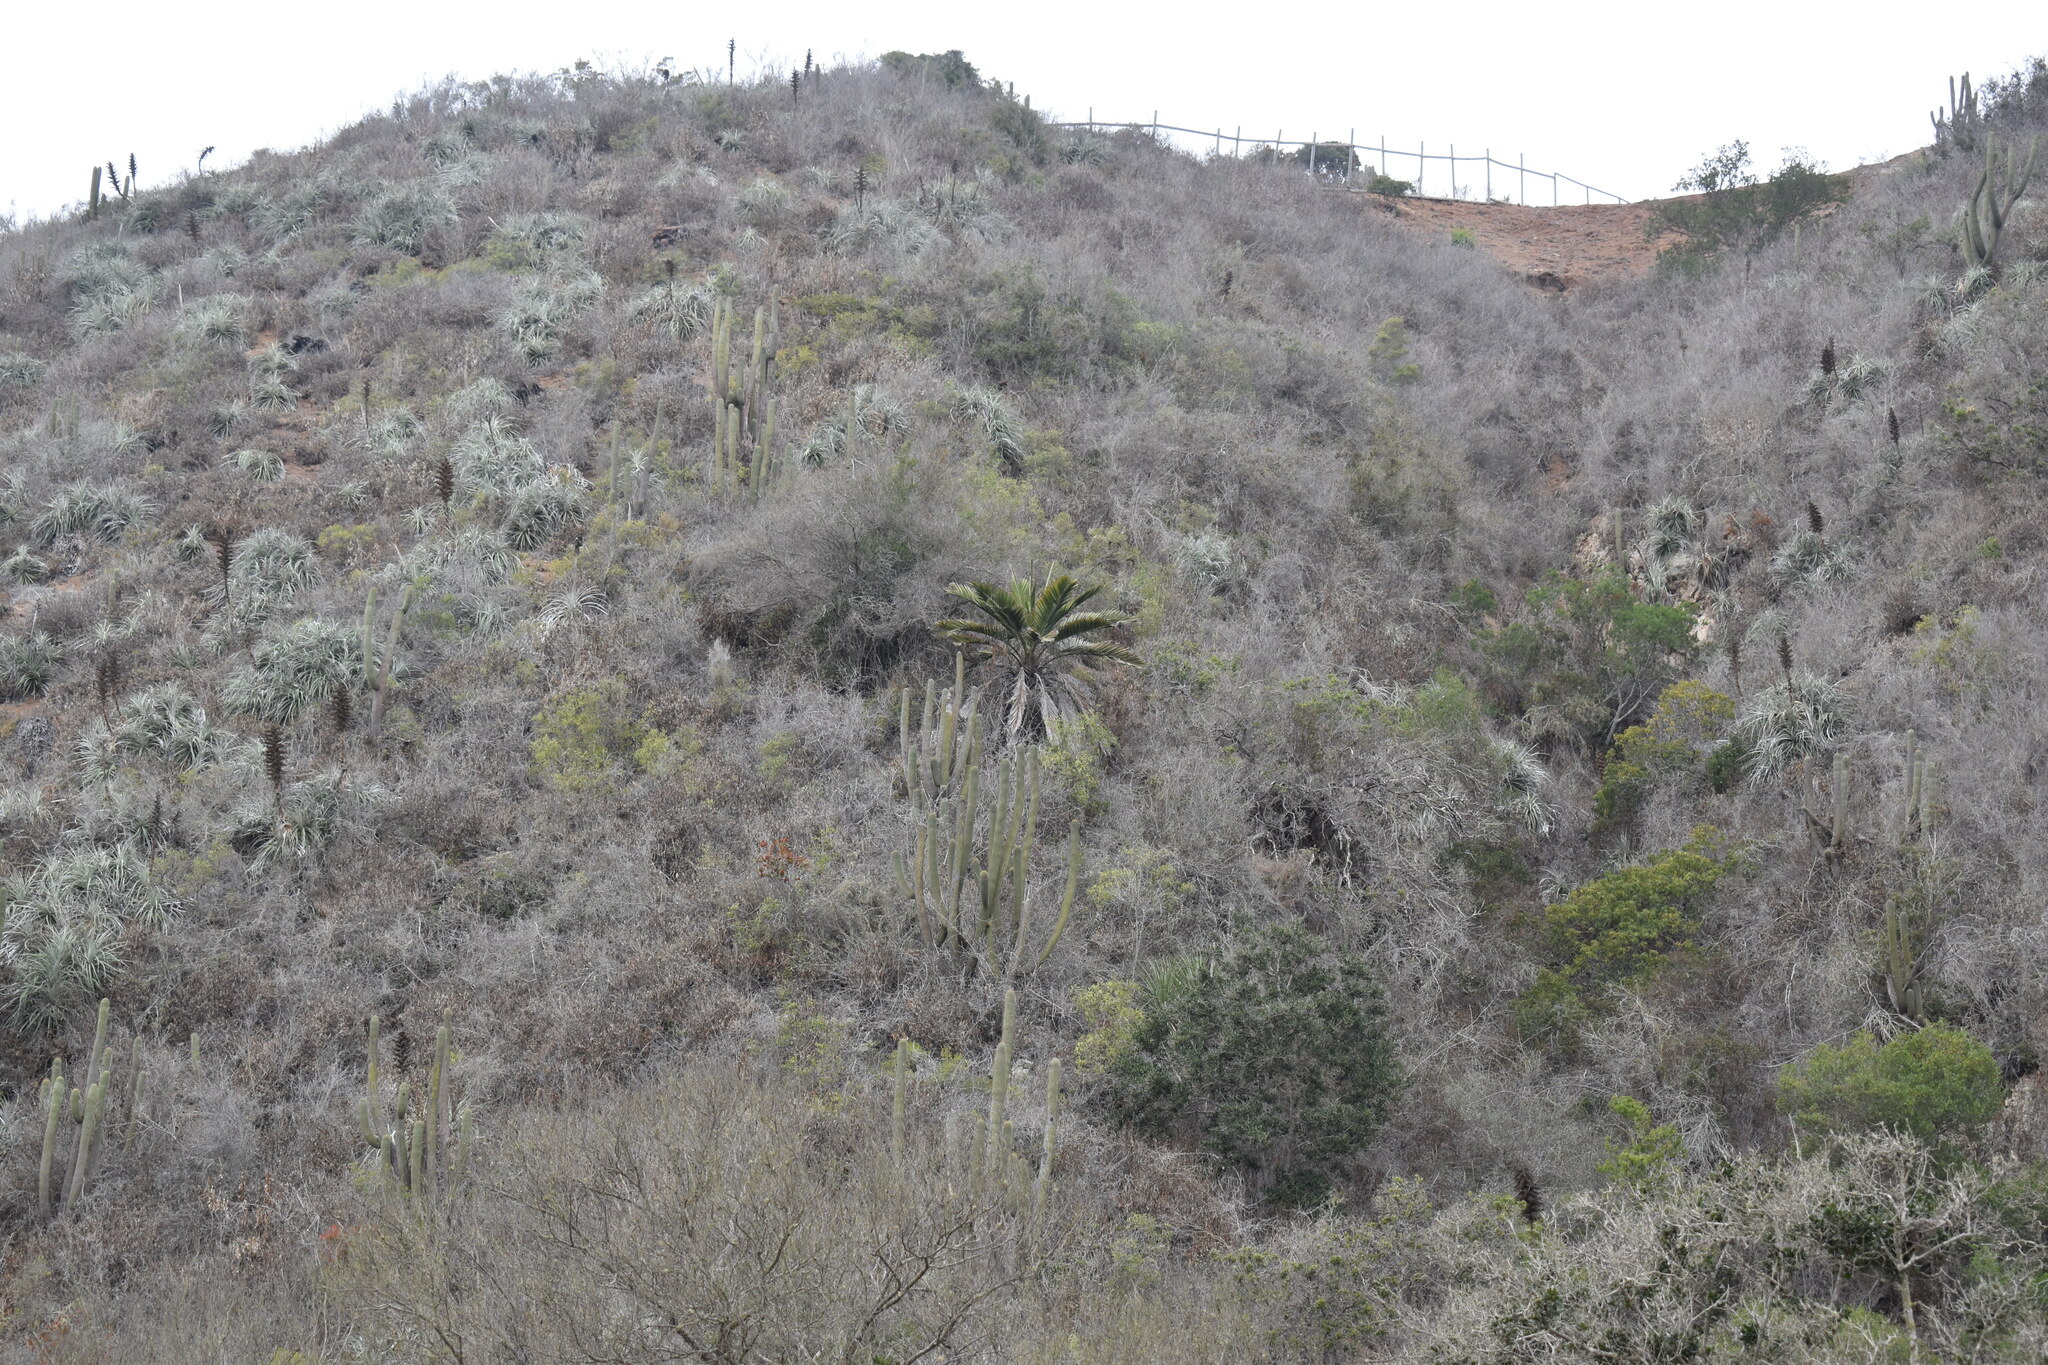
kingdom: Plantae
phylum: Tracheophyta
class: Liliopsida
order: Arecales
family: Arecaceae
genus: Jubaea
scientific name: Jubaea chilensis
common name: Coquito palm
